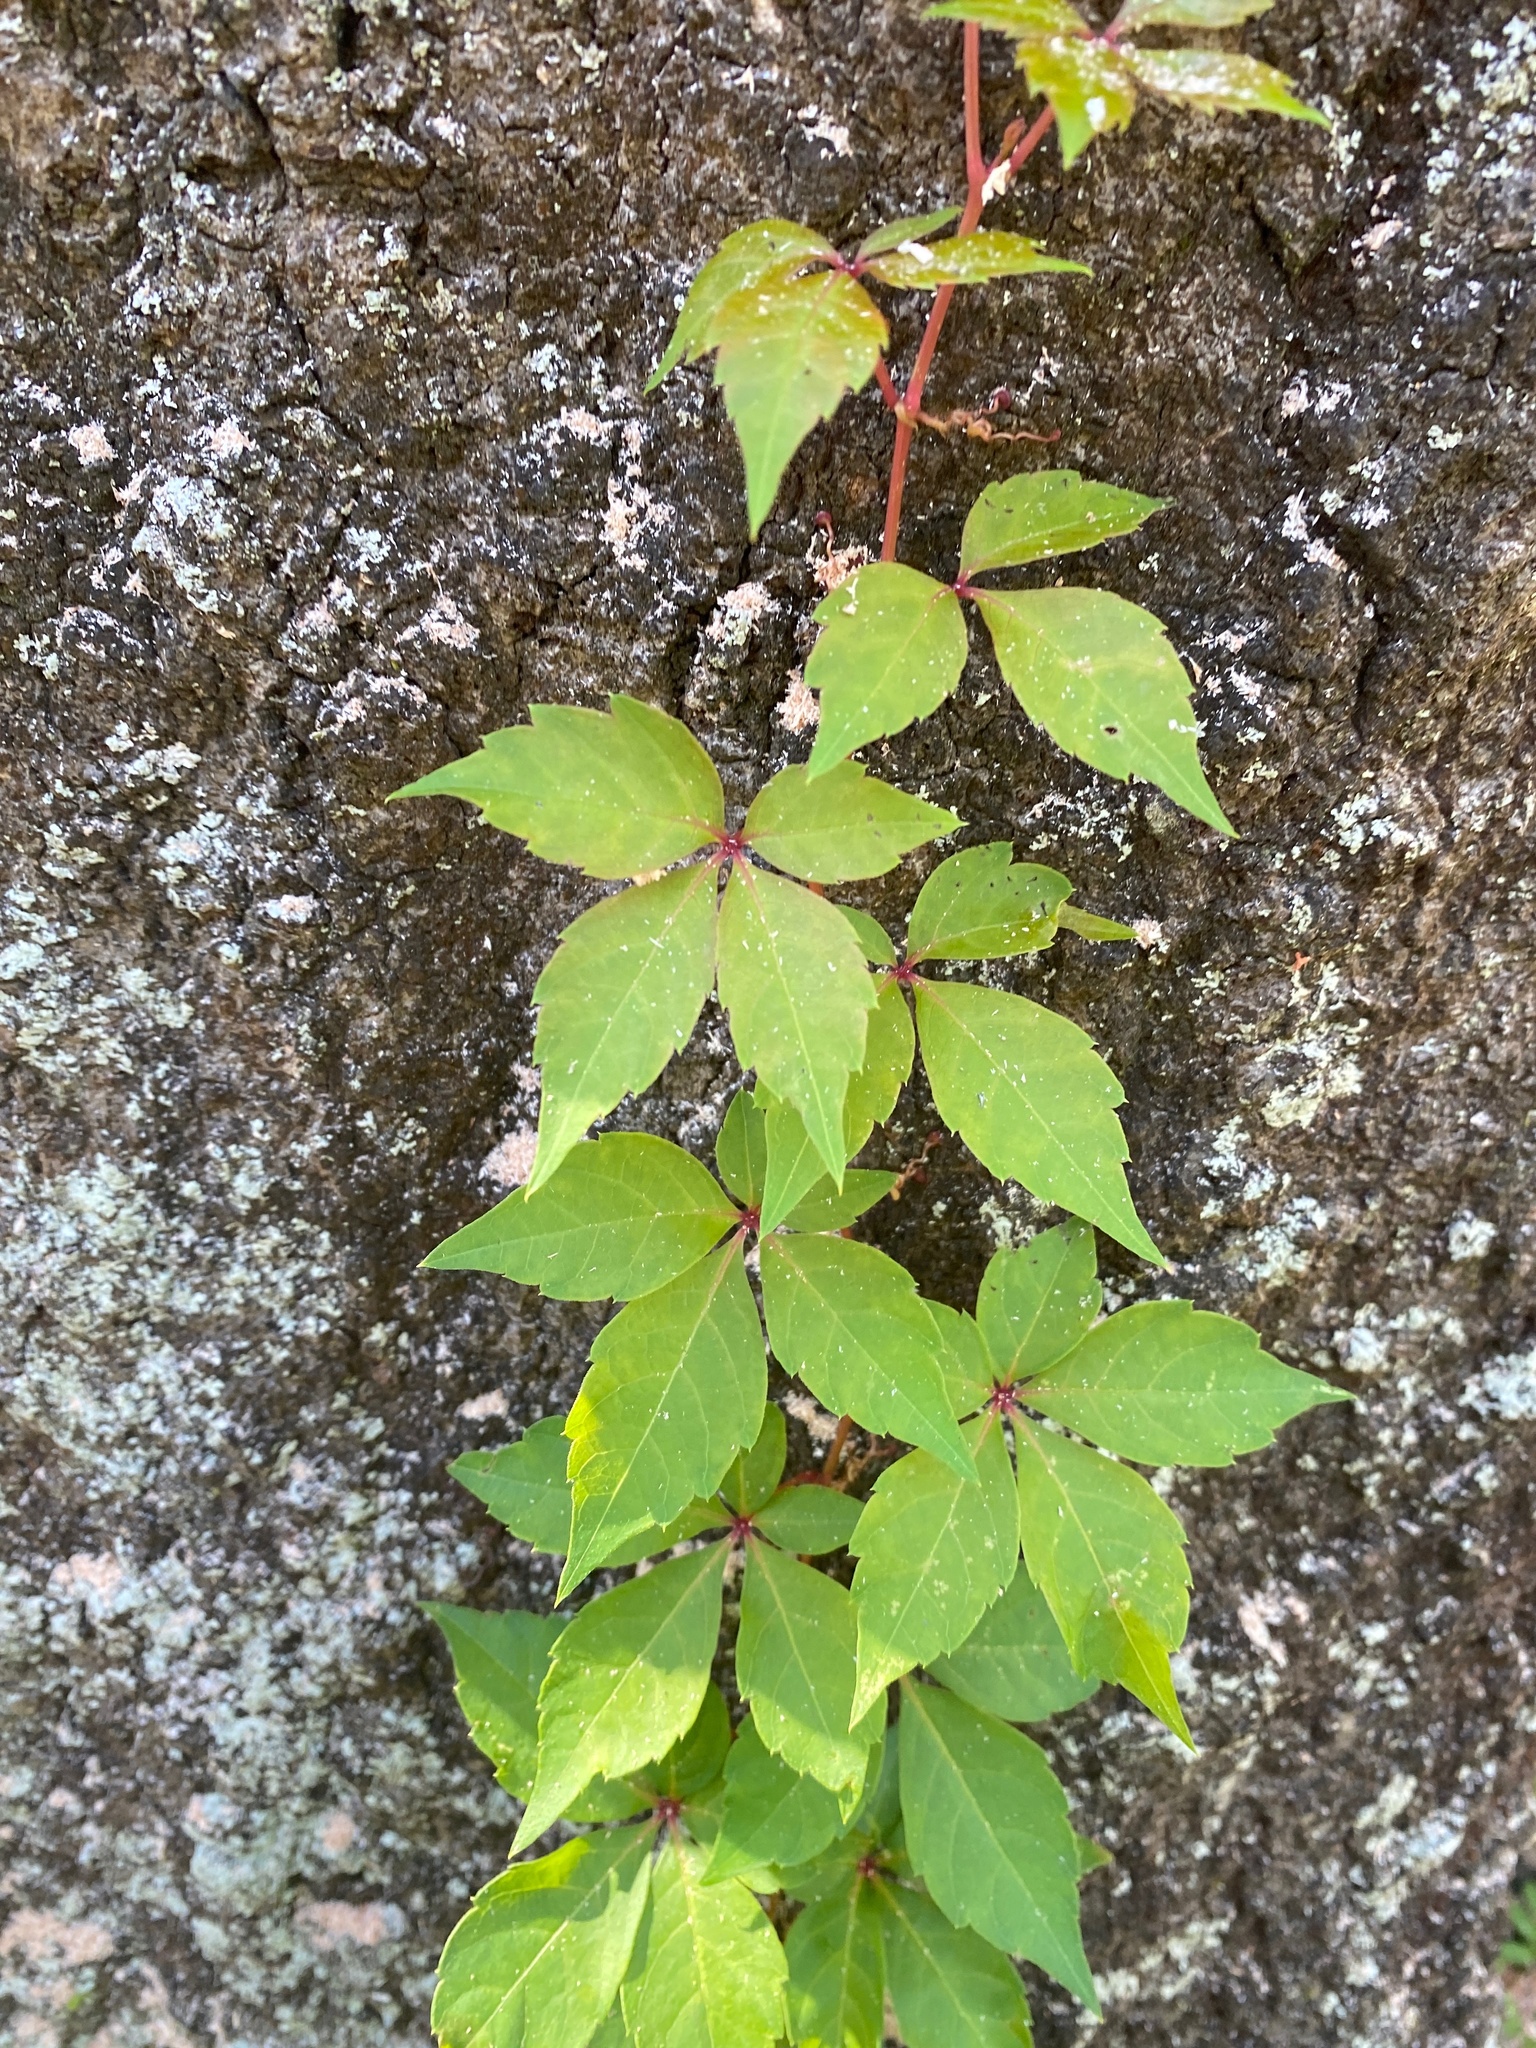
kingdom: Plantae
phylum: Tracheophyta
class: Magnoliopsida
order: Vitales
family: Vitaceae
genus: Parthenocissus
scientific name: Parthenocissus quinquefolia
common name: Virginia-creeper
